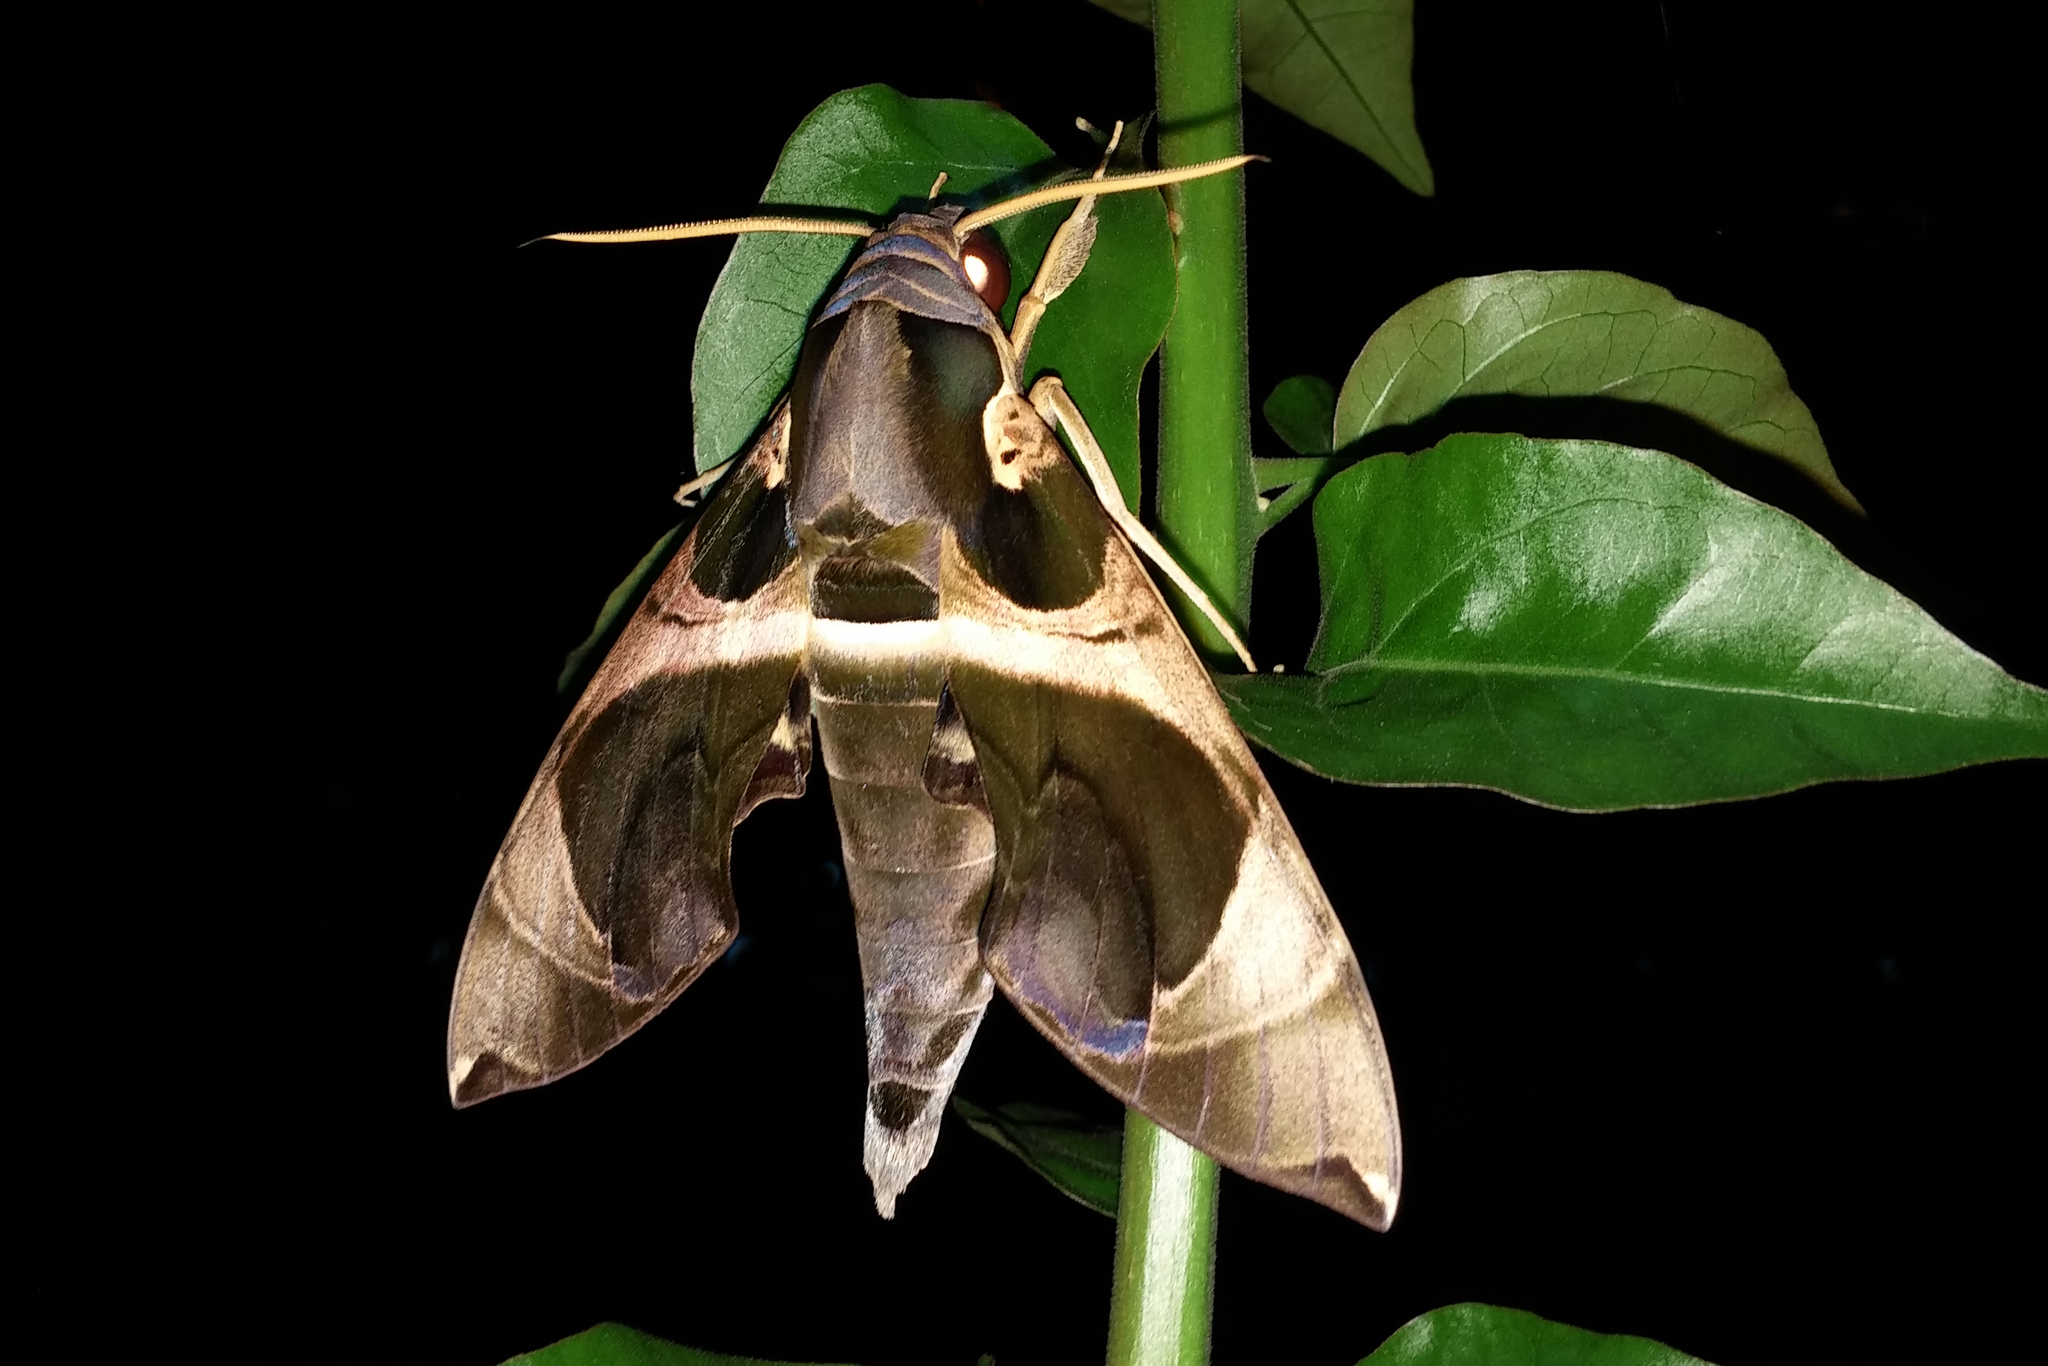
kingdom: Animalia
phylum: Arthropoda
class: Insecta
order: Lepidoptera
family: Sphingidae
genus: Daphnis
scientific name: Daphnis moorei
